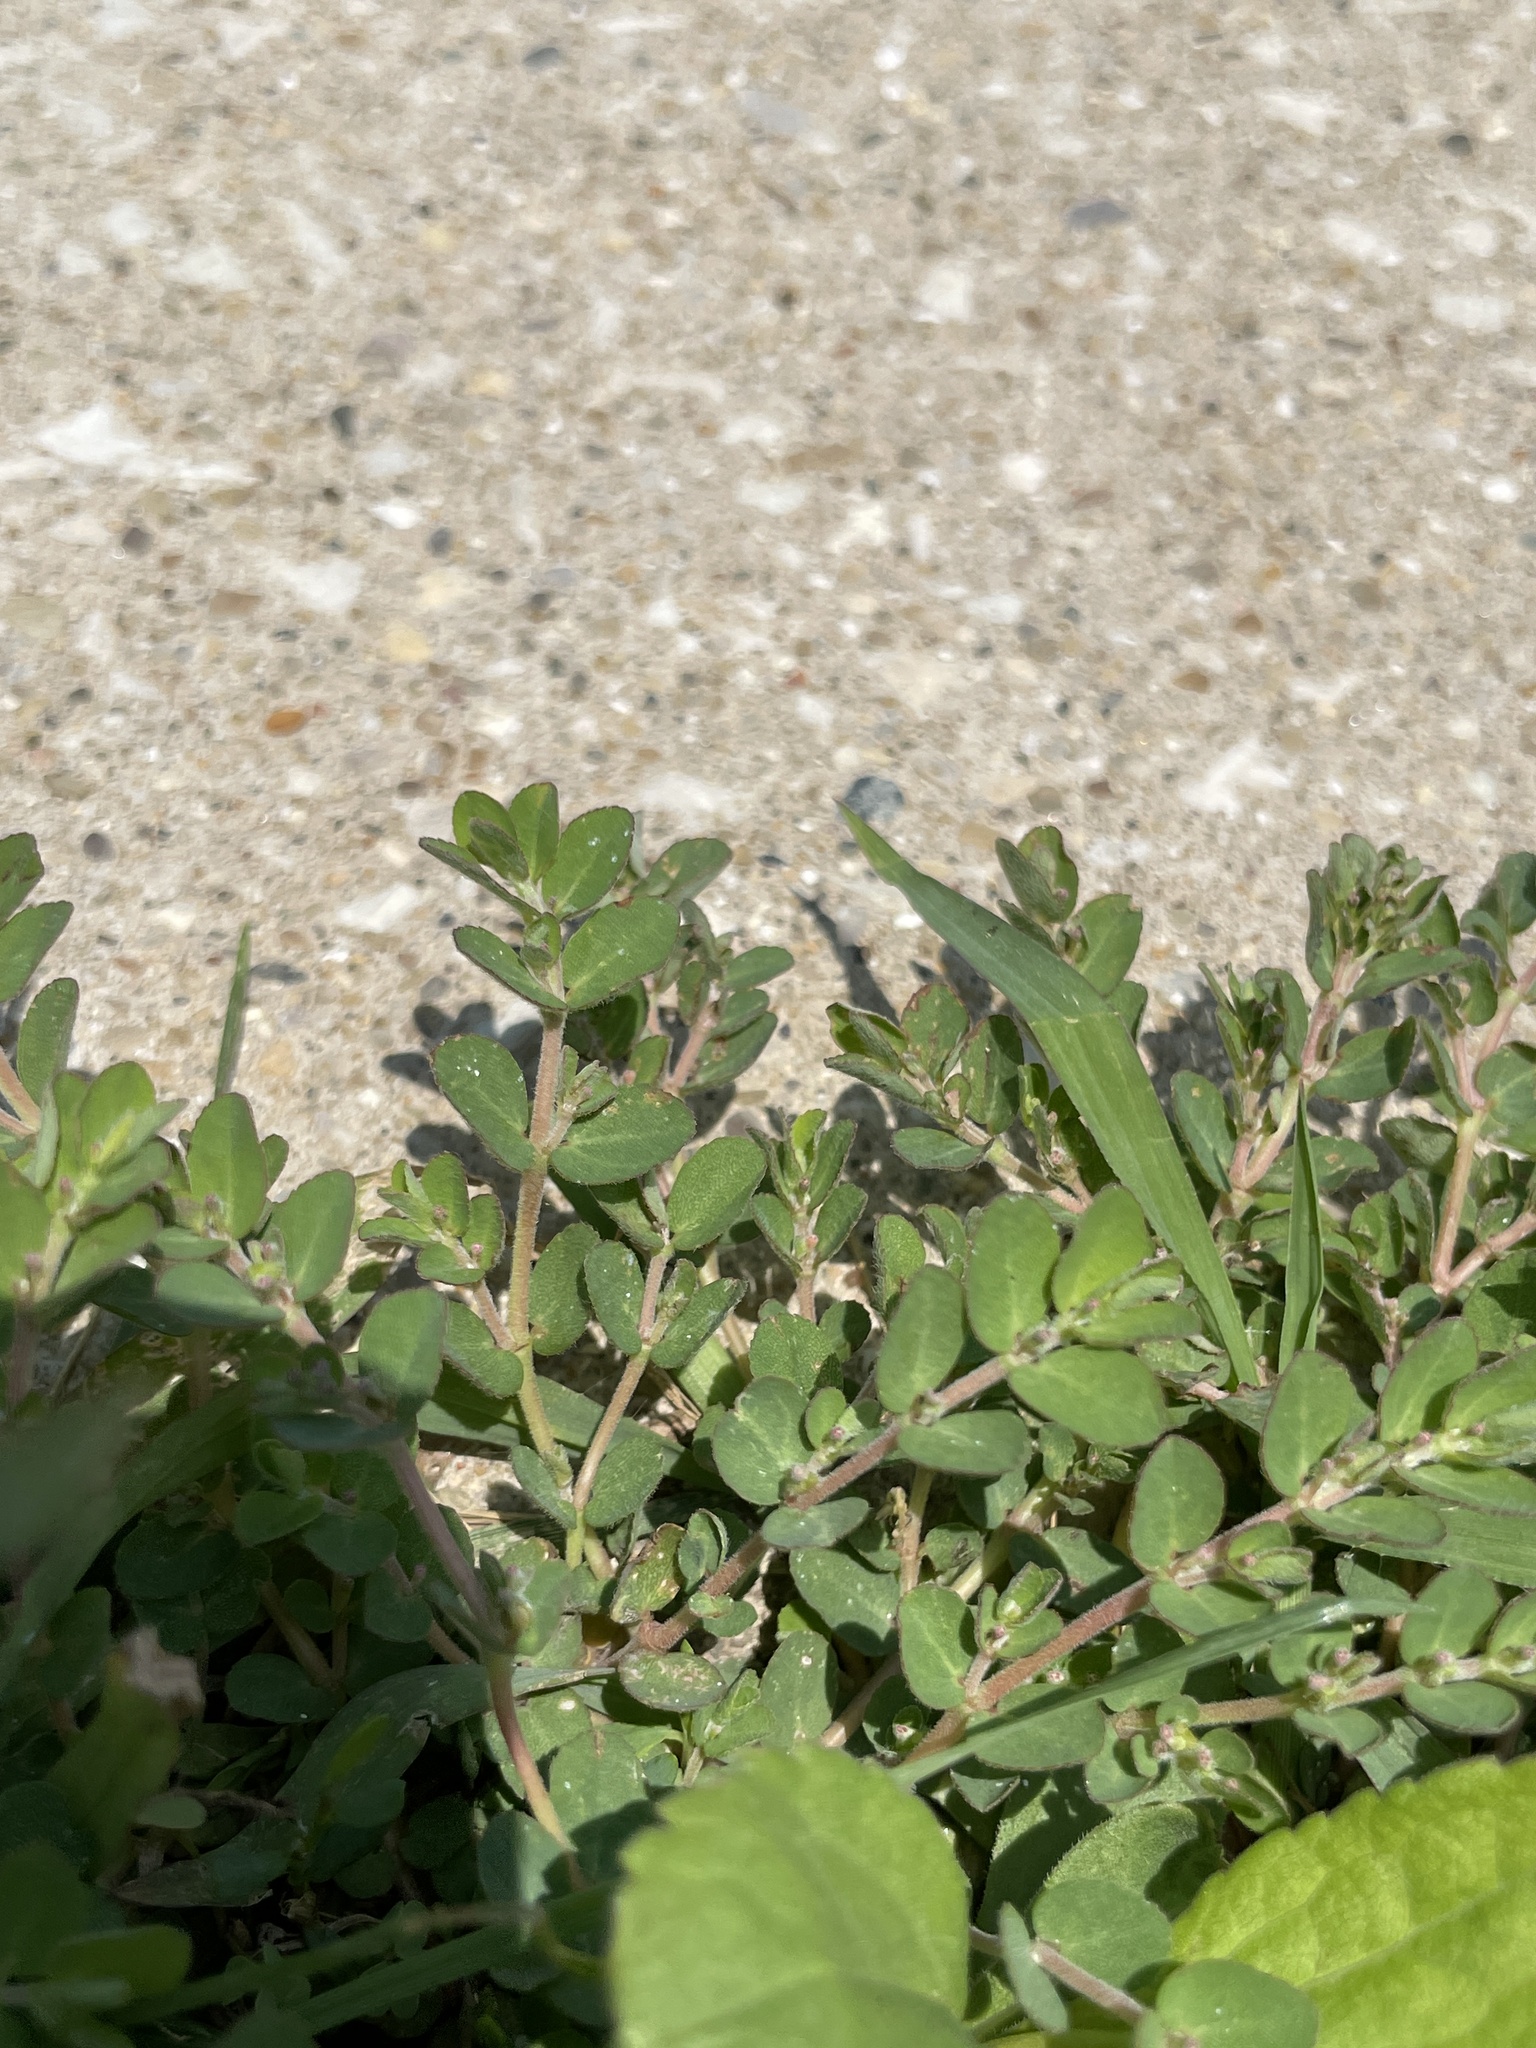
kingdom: Plantae
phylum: Tracheophyta
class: Magnoliopsida
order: Malpighiales
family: Euphorbiaceae
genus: Euphorbia
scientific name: Euphorbia prostrata
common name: Prostrate sandmat
